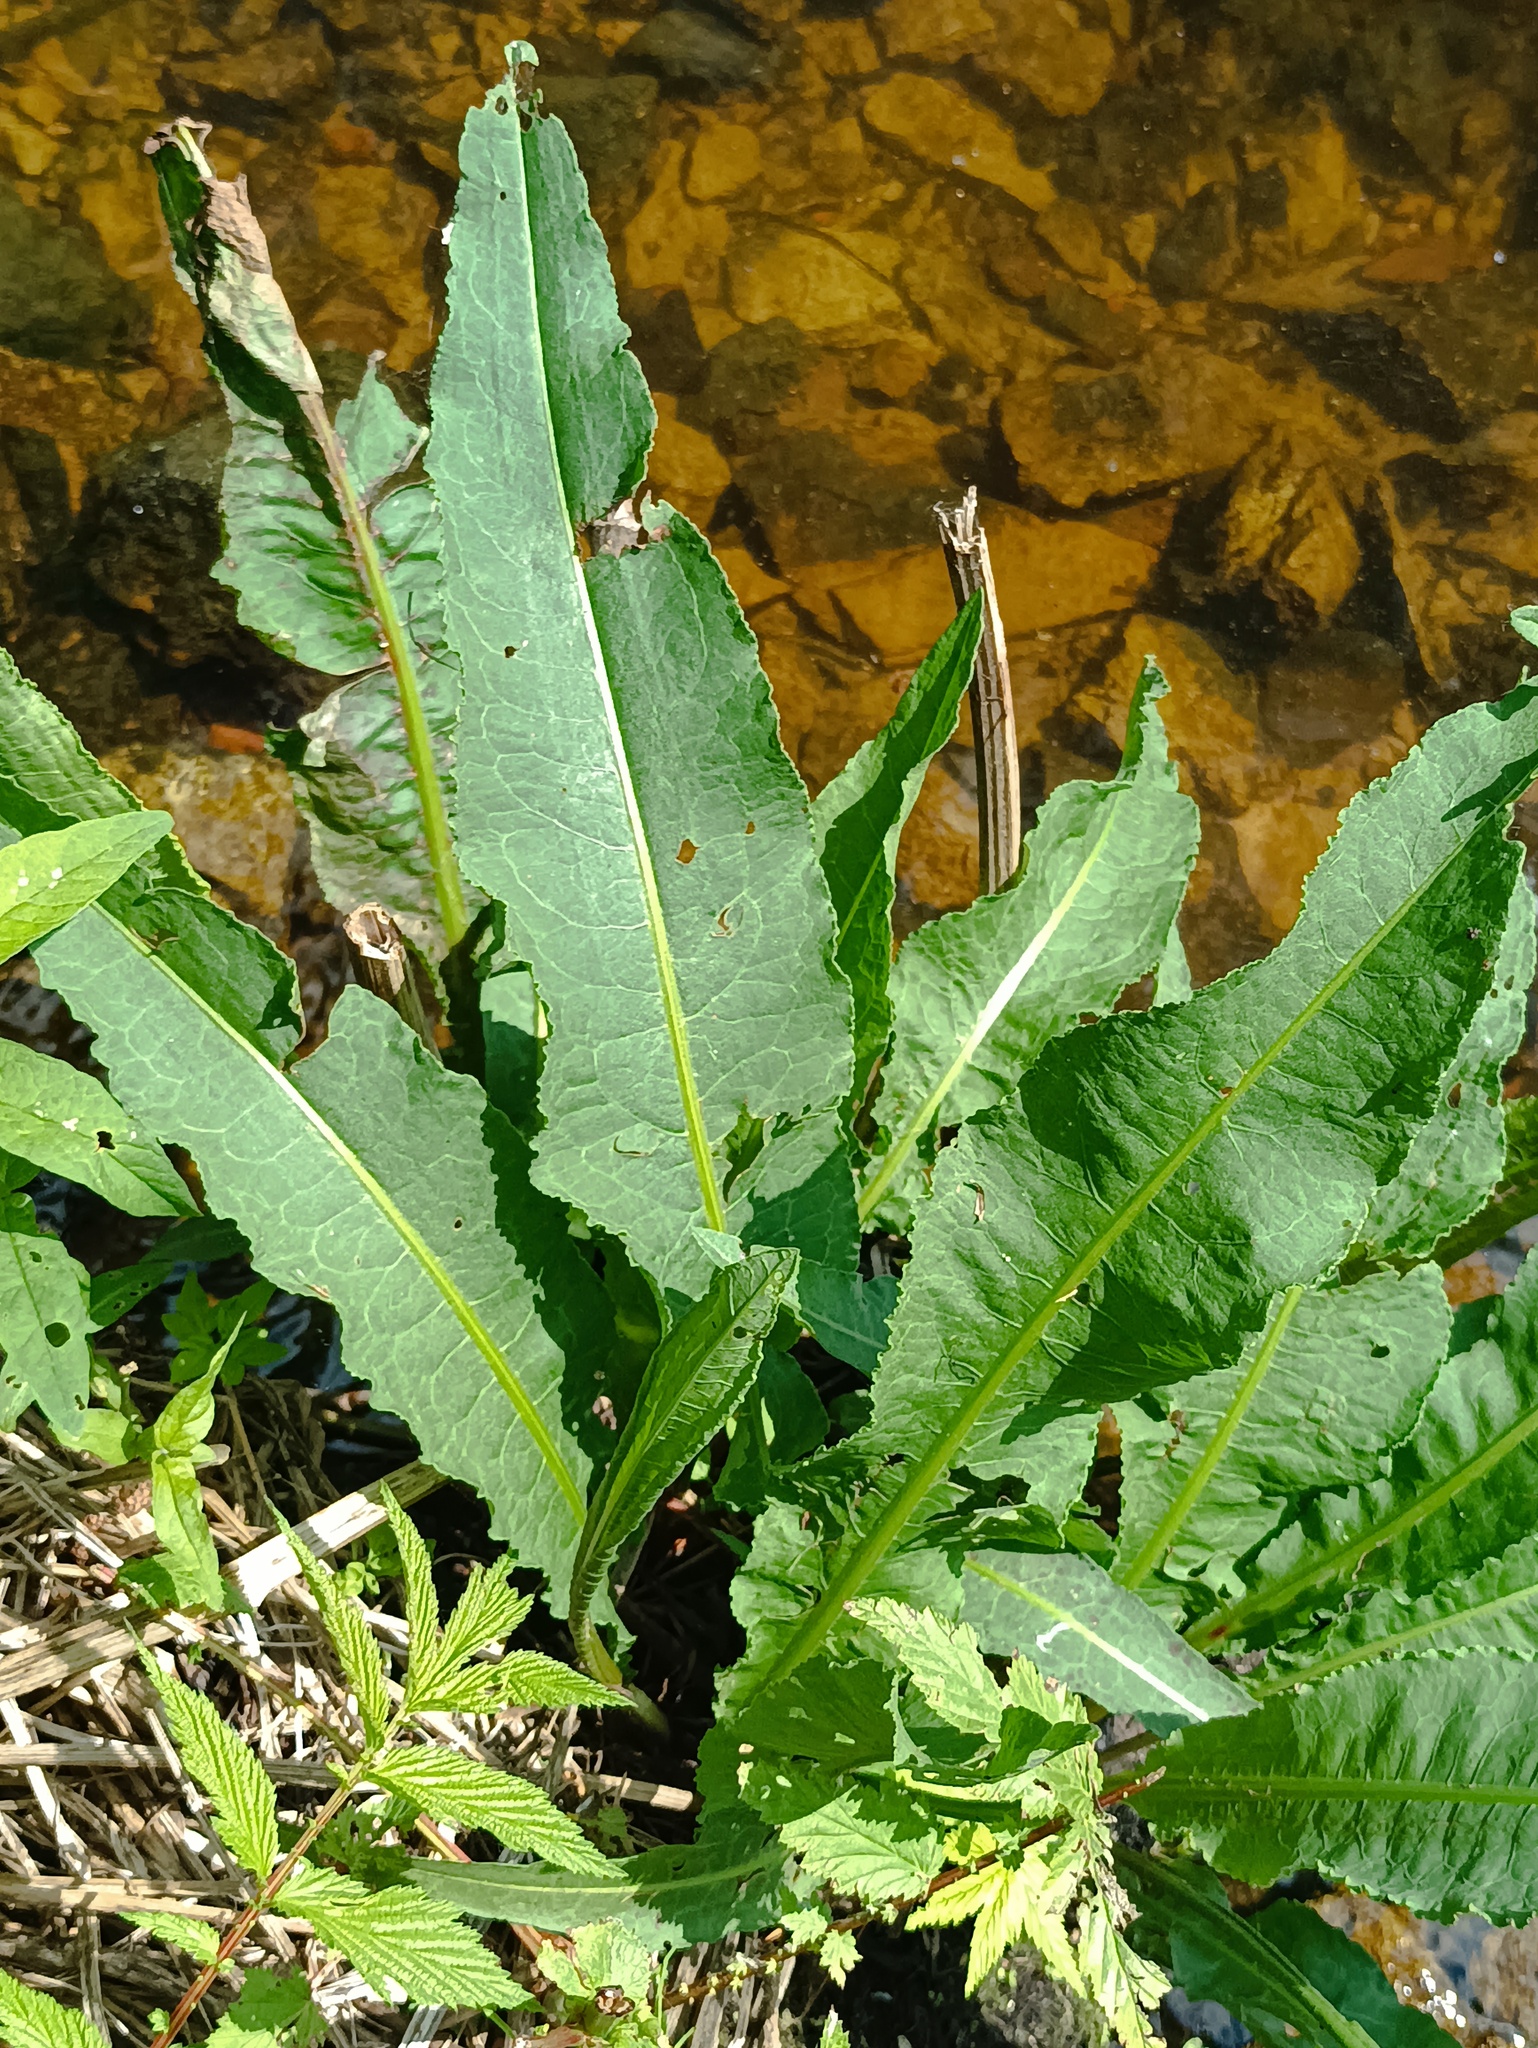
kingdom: Plantae
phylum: Tracheophyta
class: Magnoliopsida
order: Caryophyllales
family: Polygonaceae
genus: Rumex
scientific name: Rumex hydrolapathum
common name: Water dock
